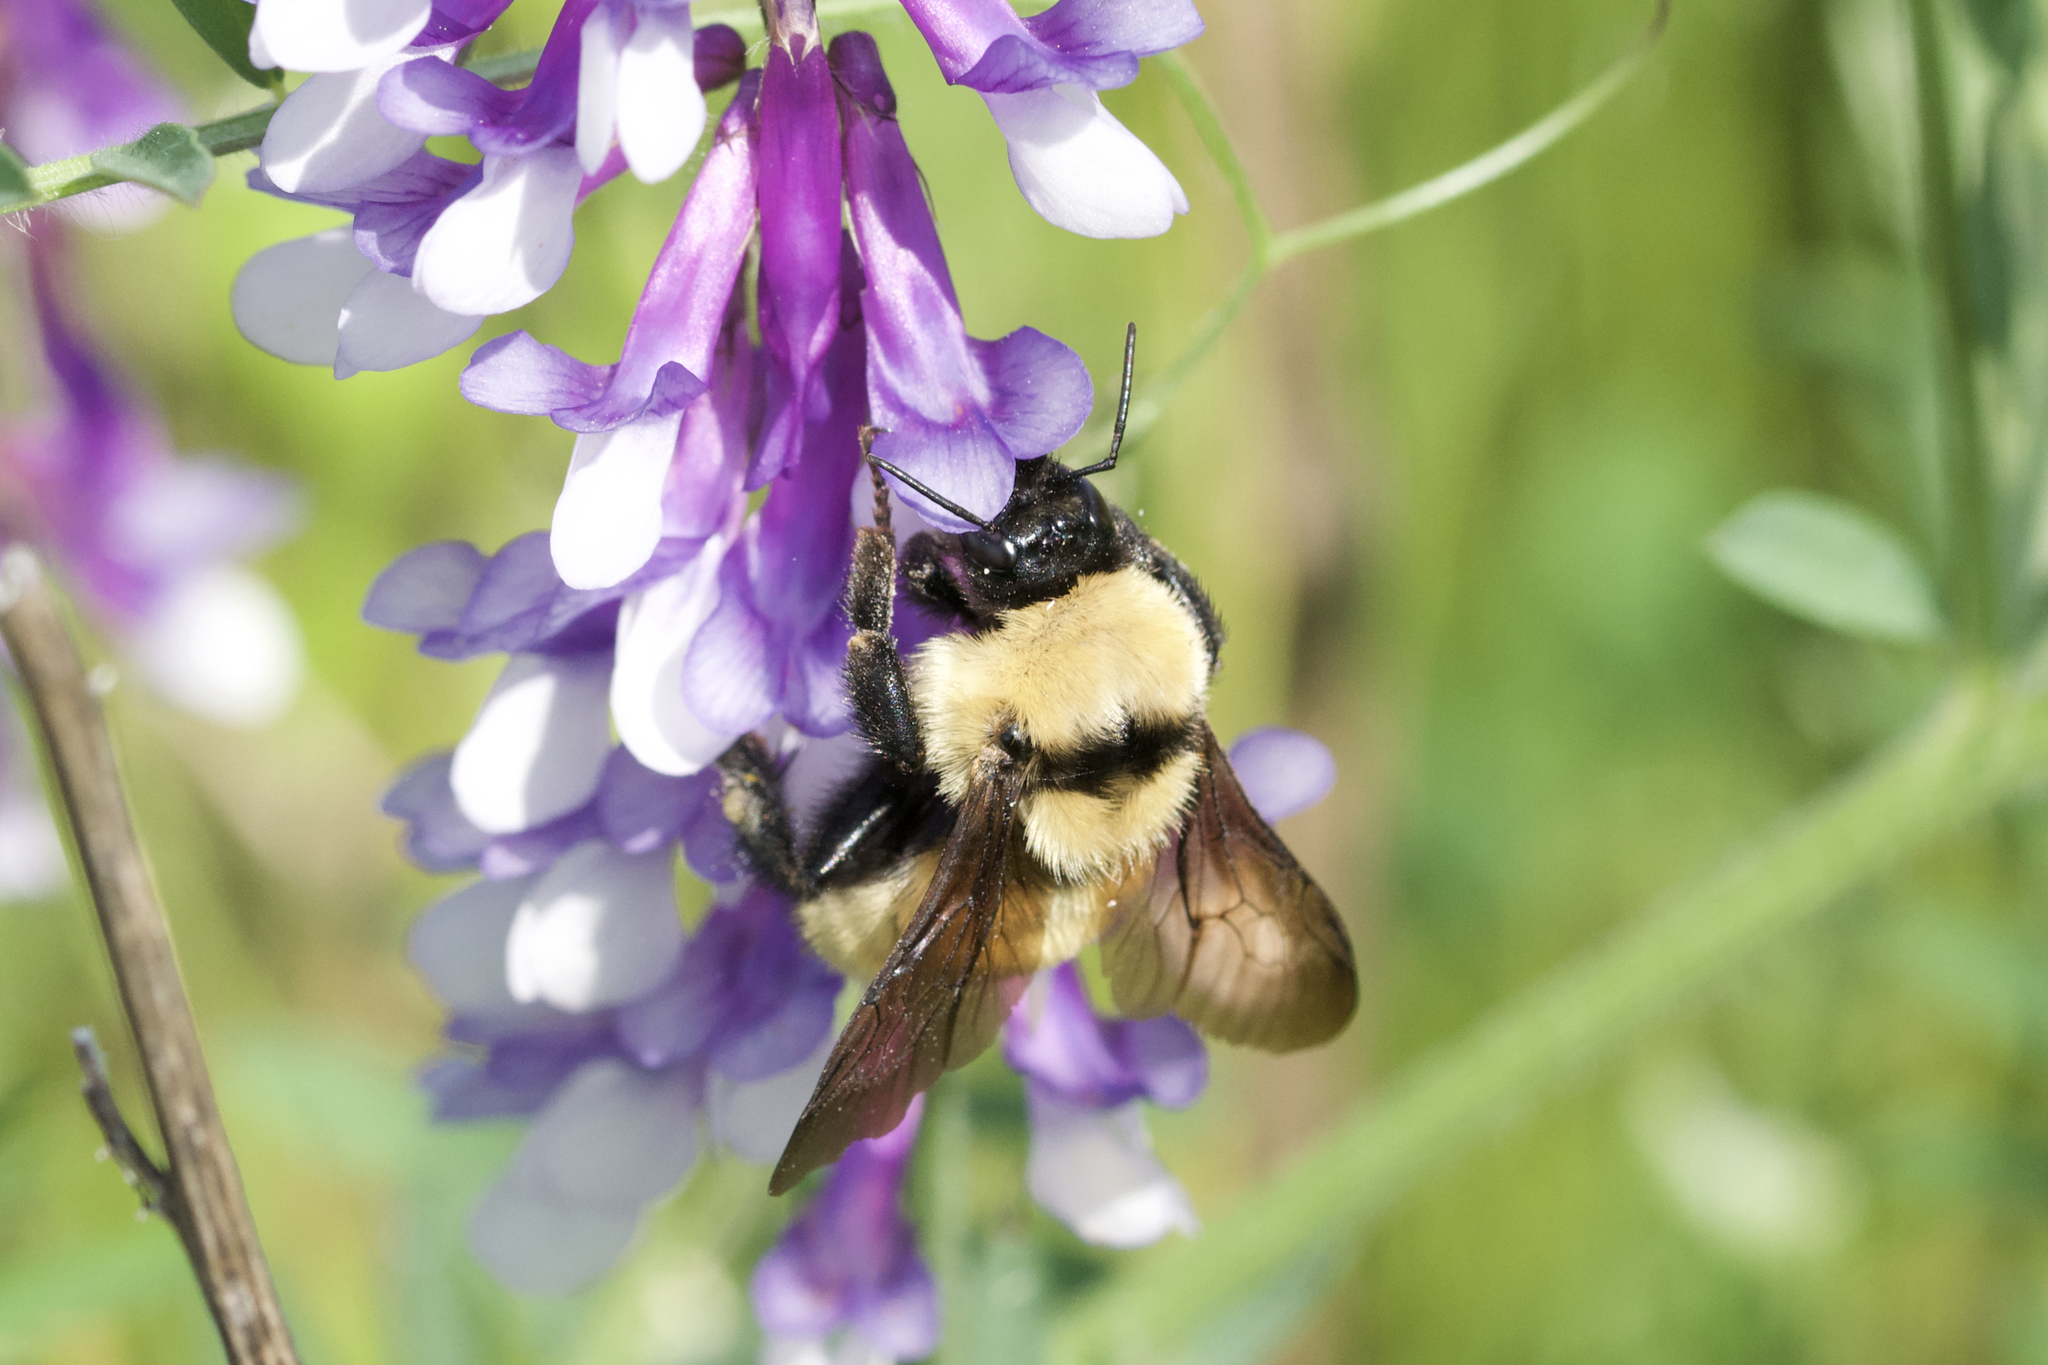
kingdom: Animalia
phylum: Arthropoda
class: Insecta
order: Hymenoptera
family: Apidae
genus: Bombus
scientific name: Bombus fervidus
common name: Yellow bumble bee
